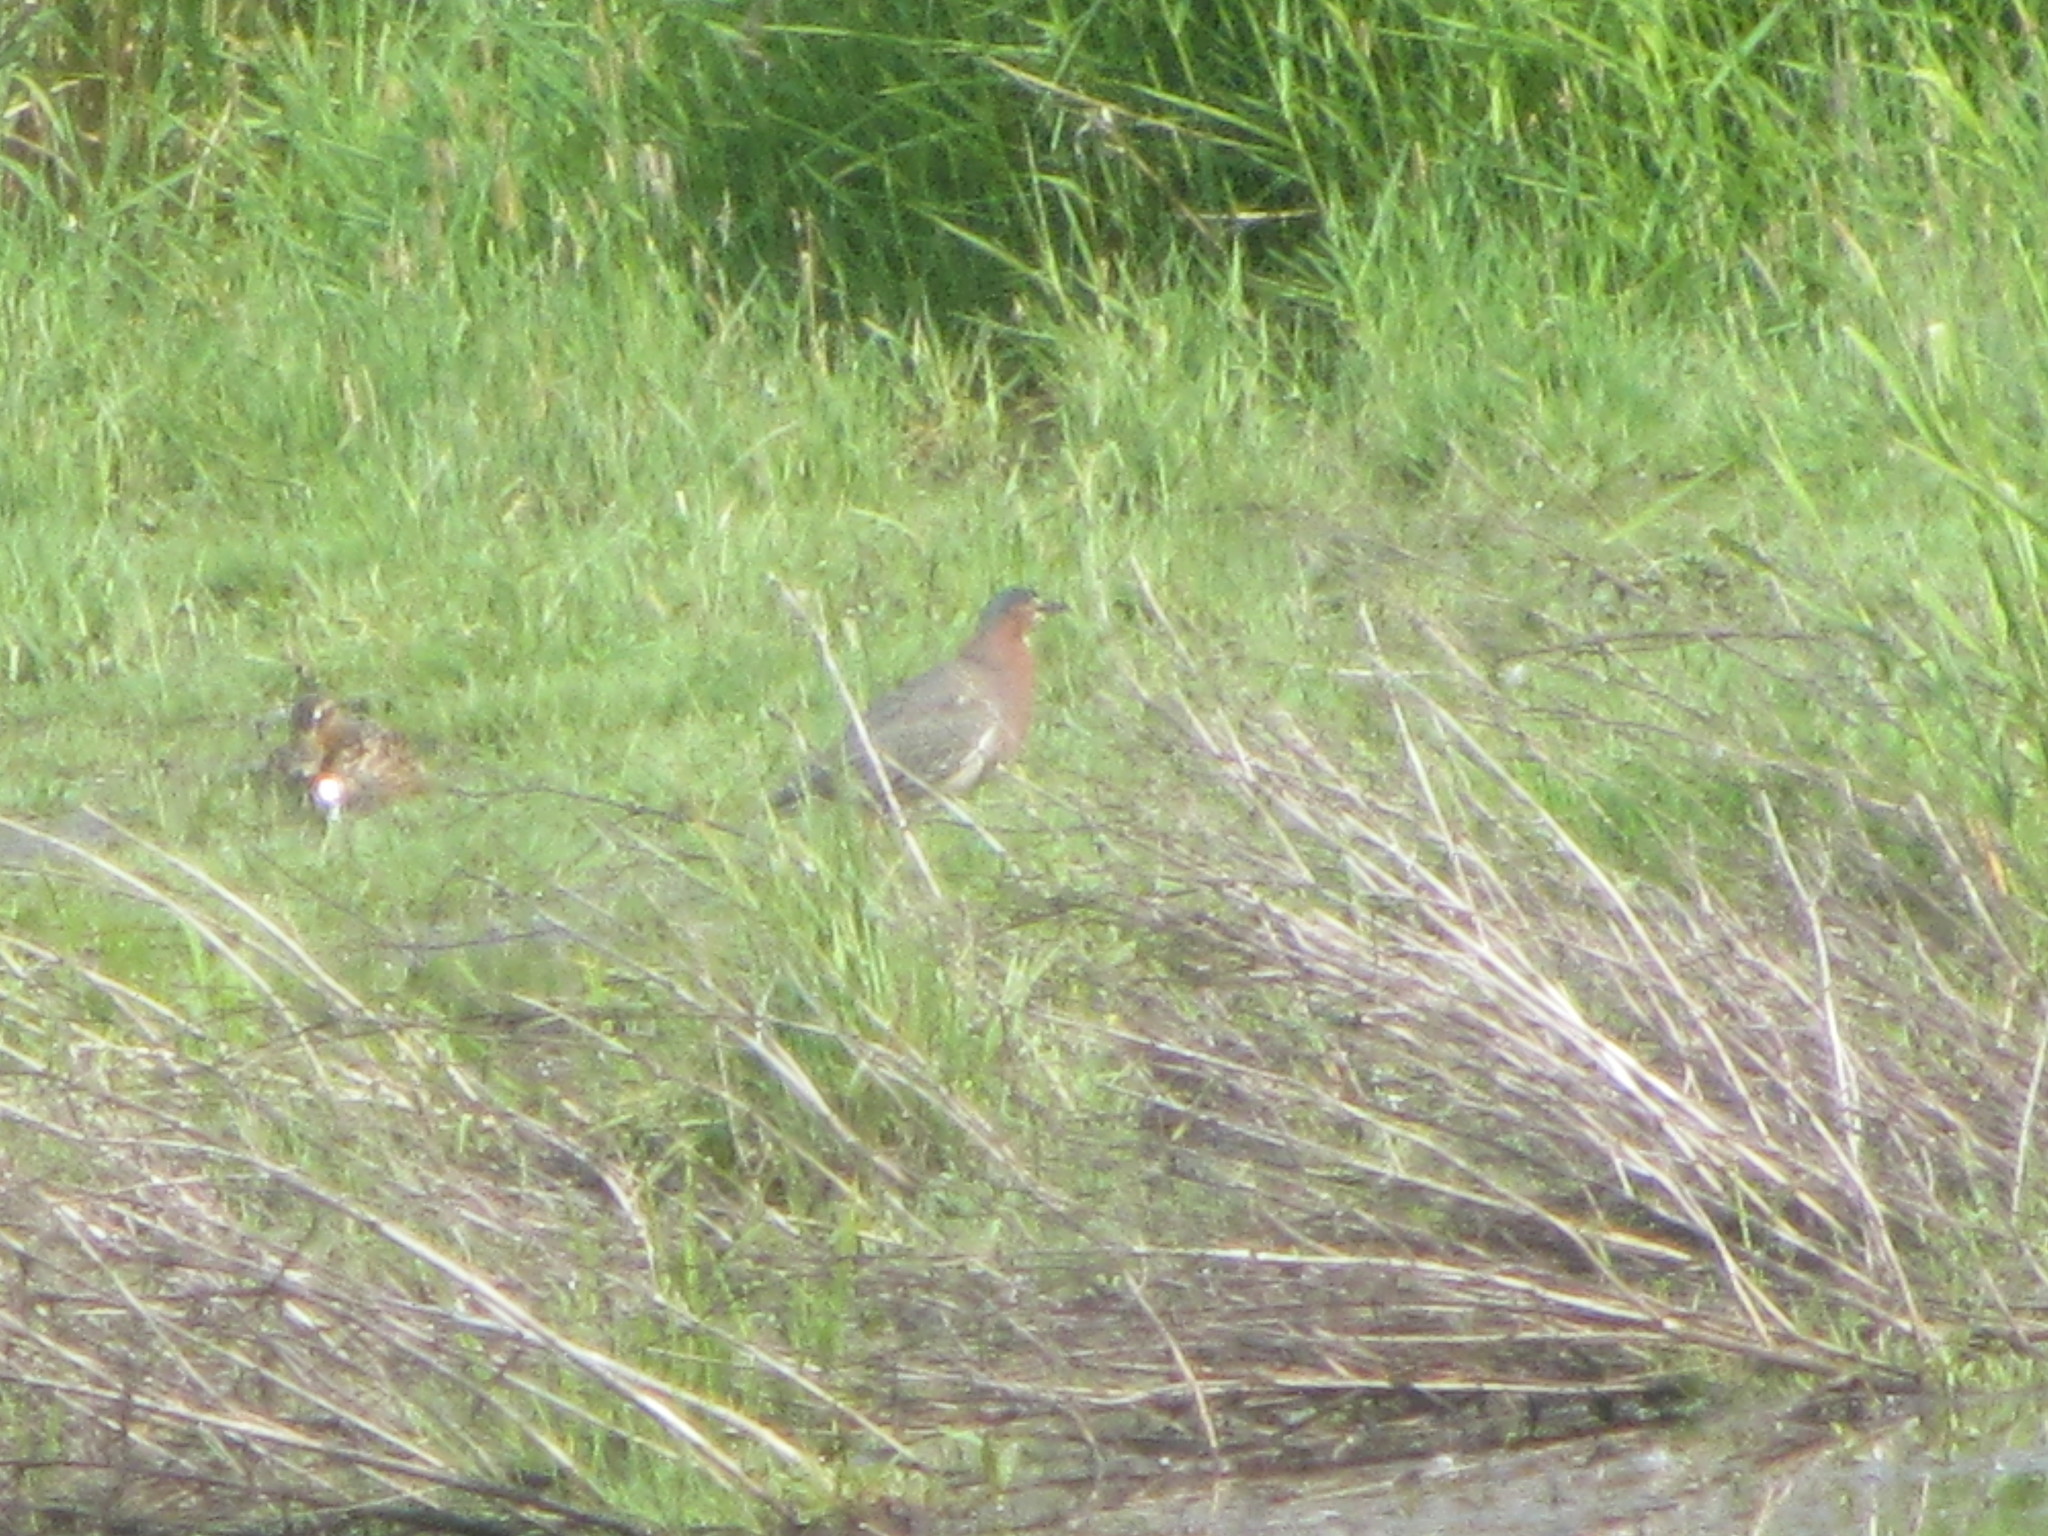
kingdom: Animalia
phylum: Chordata
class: Aves
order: Pelecaniformes
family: Ardeidae
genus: Butorides
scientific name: Butorides virescens
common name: Green heron
